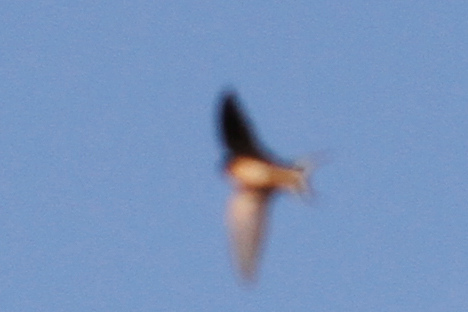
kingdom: Animalia
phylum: Chordata
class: Aves
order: Passeriformes
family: Hirundinidae
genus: Hirundo
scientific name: Hirundo rustica
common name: Barn swallow
